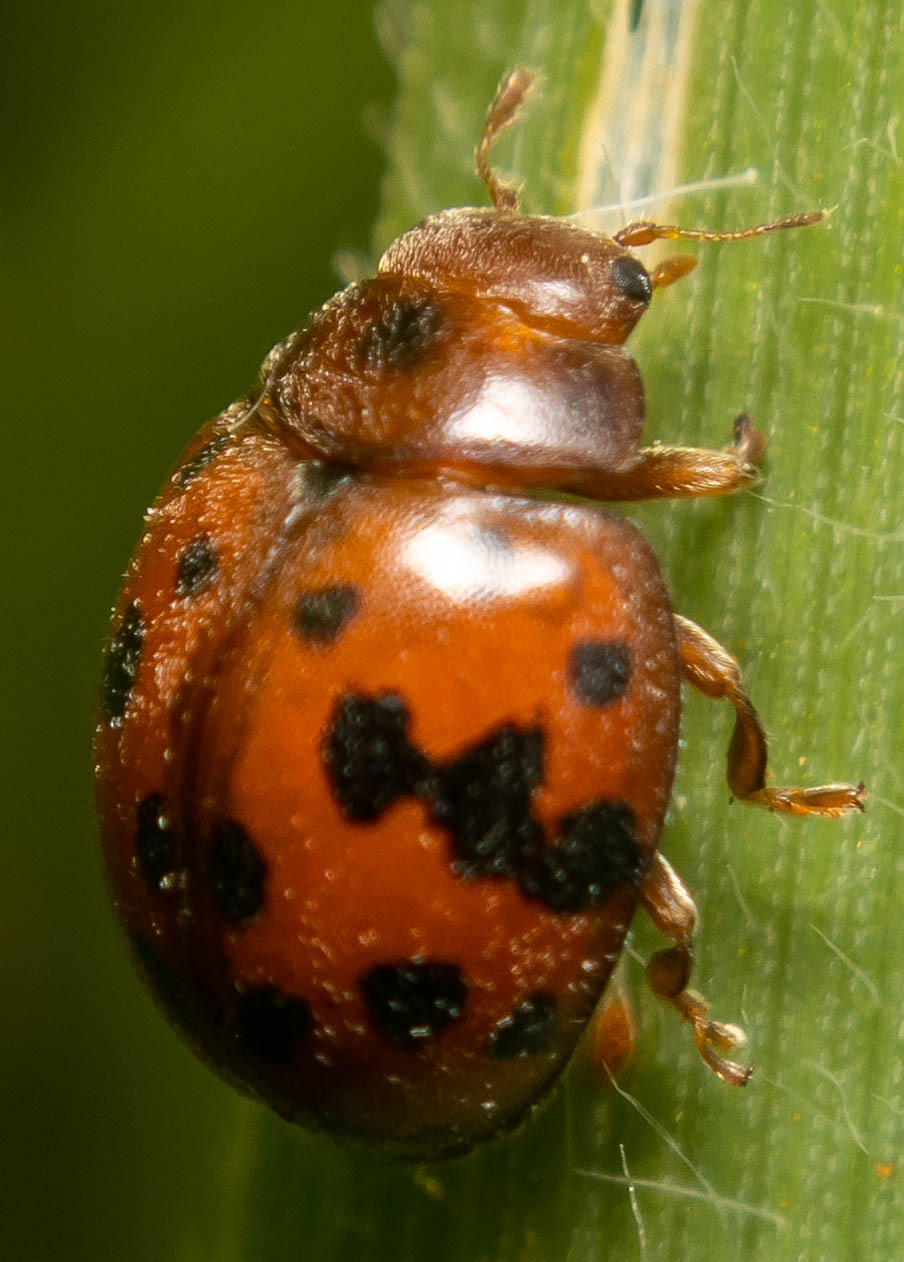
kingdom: Animalia
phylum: Arthropoda
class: Insecta
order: Coleoptera
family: Coccinellidae
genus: Subcoccinella
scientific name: Subcoccinella vigintiquatuorpunctata
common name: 24-spot ladybird
